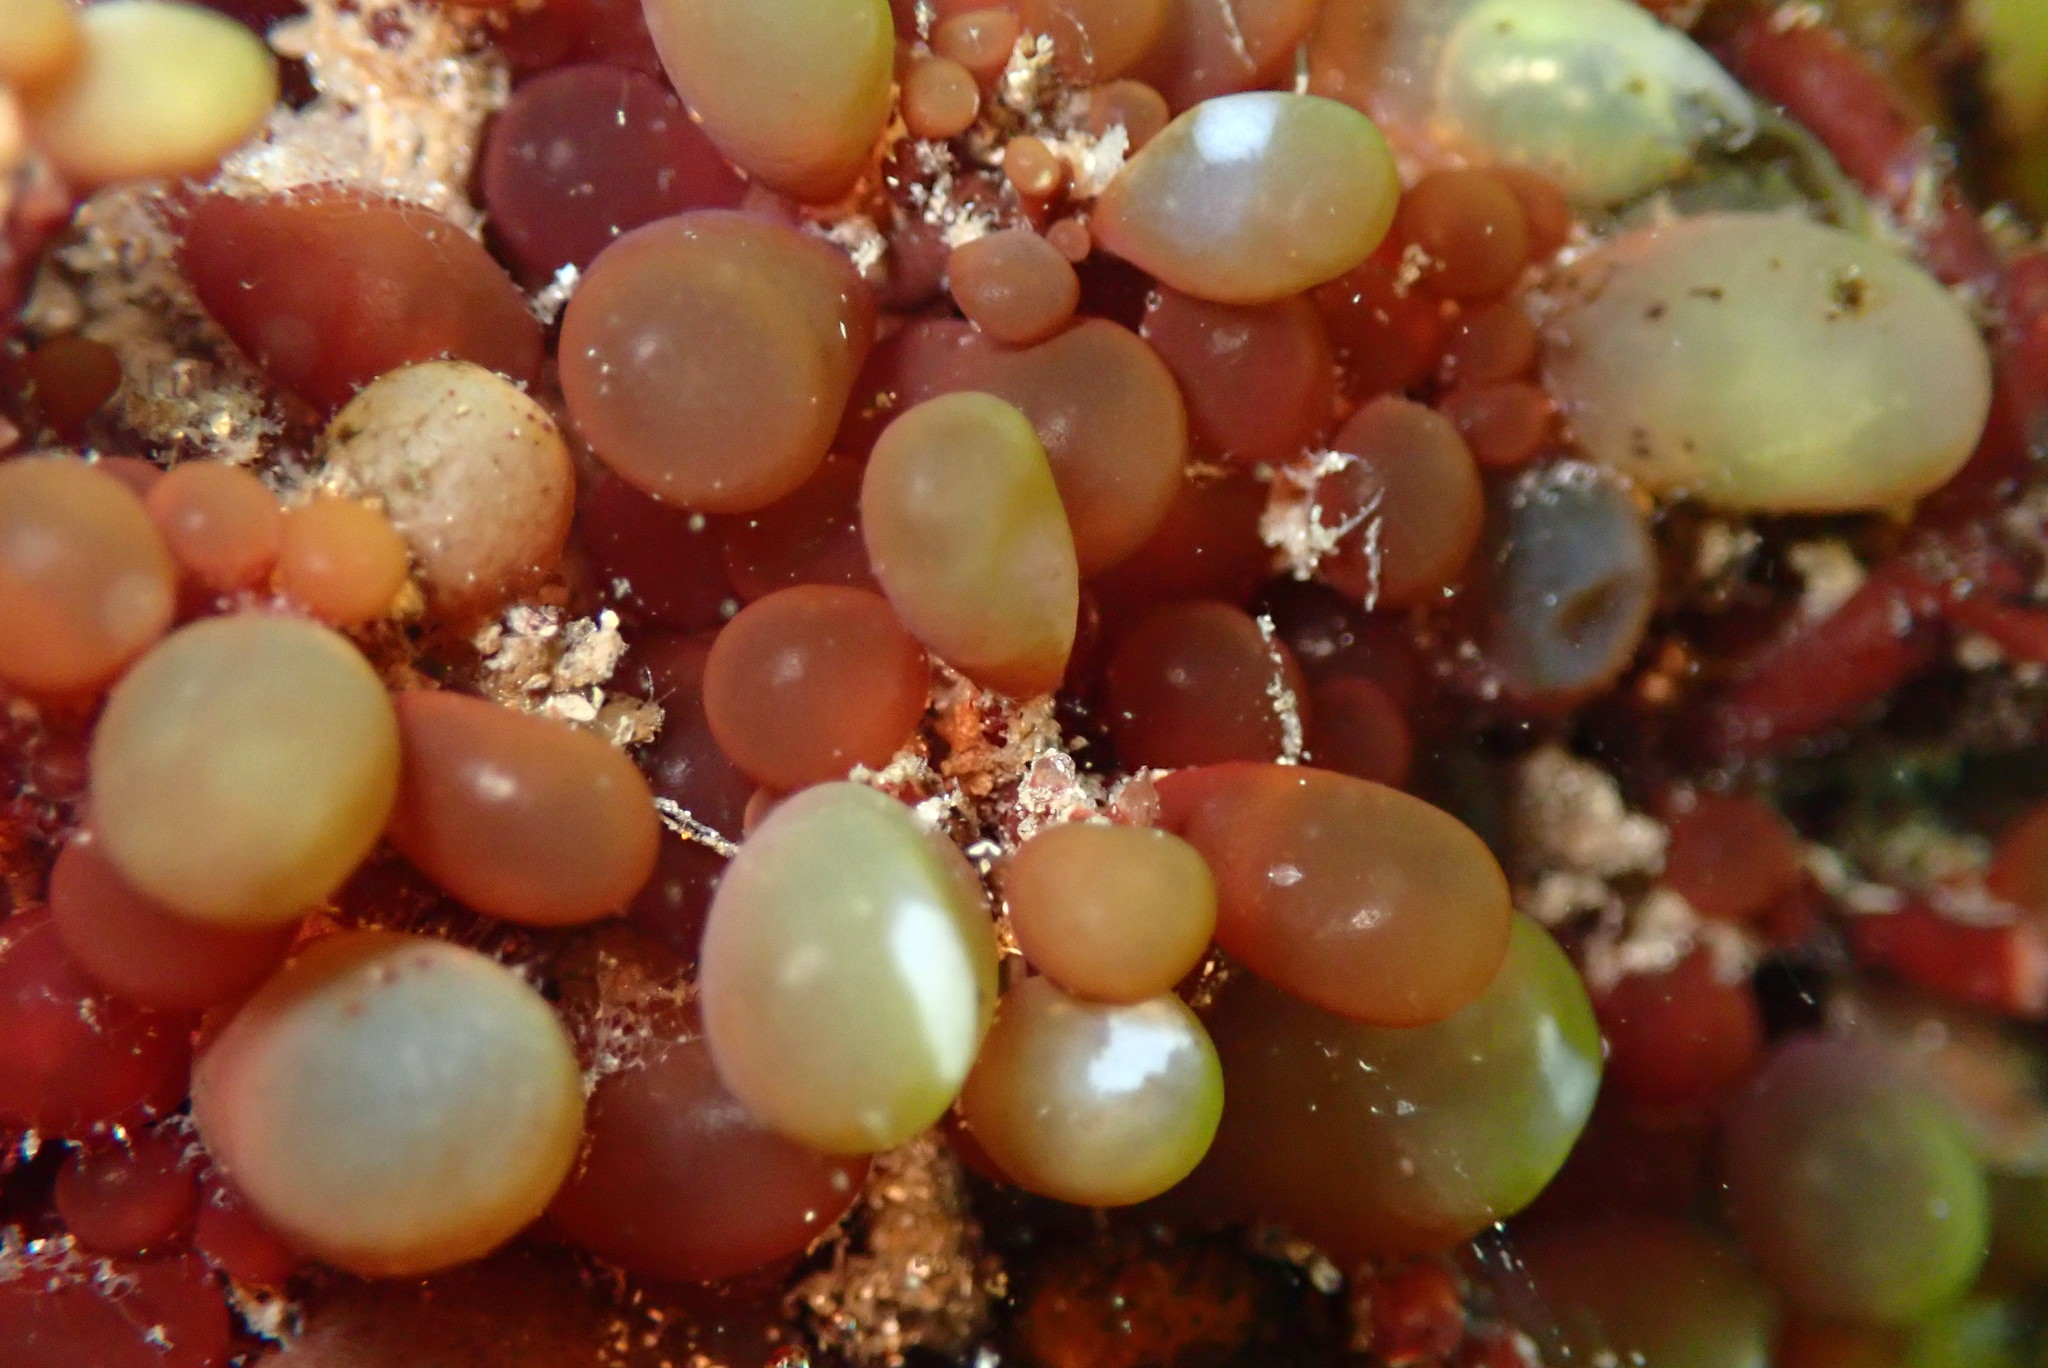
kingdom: Plantae
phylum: Rhodophyta
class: Florideophyceae
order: Rhodymeniales
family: Rhodymeniaceae
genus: Botryocladia
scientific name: Botryocladia pseudodichotoma
